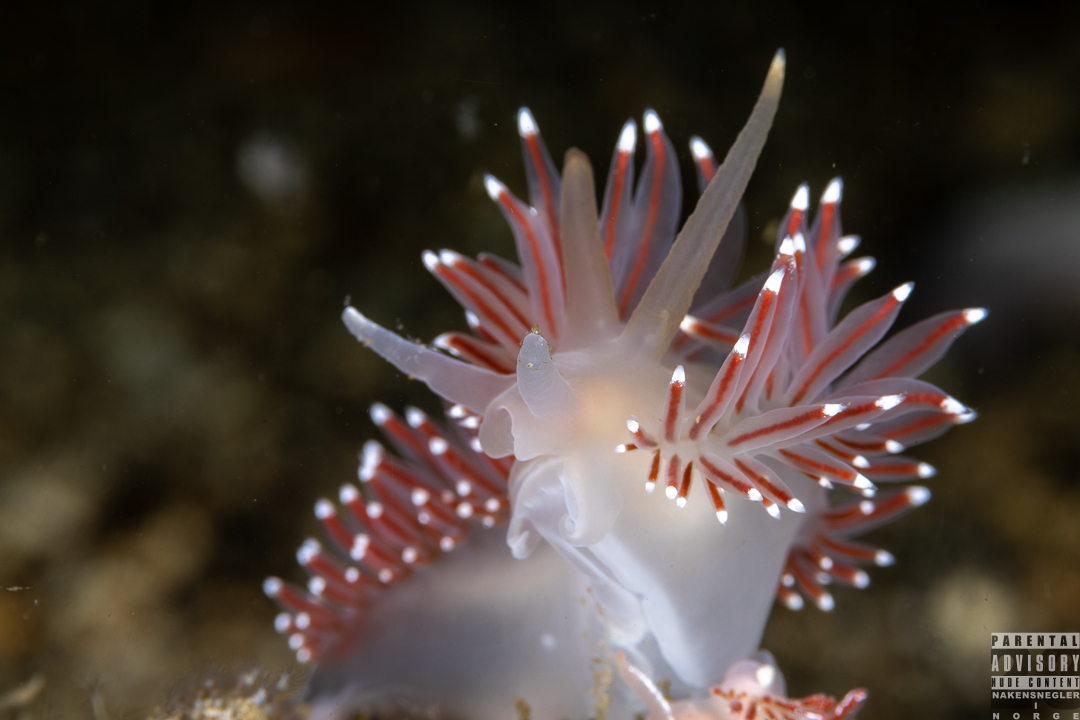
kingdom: Animalia
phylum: Mollusca
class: Gastropoda
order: Nudibranchia
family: Coryphellidae
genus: Coryphella
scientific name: Coryphella browni
